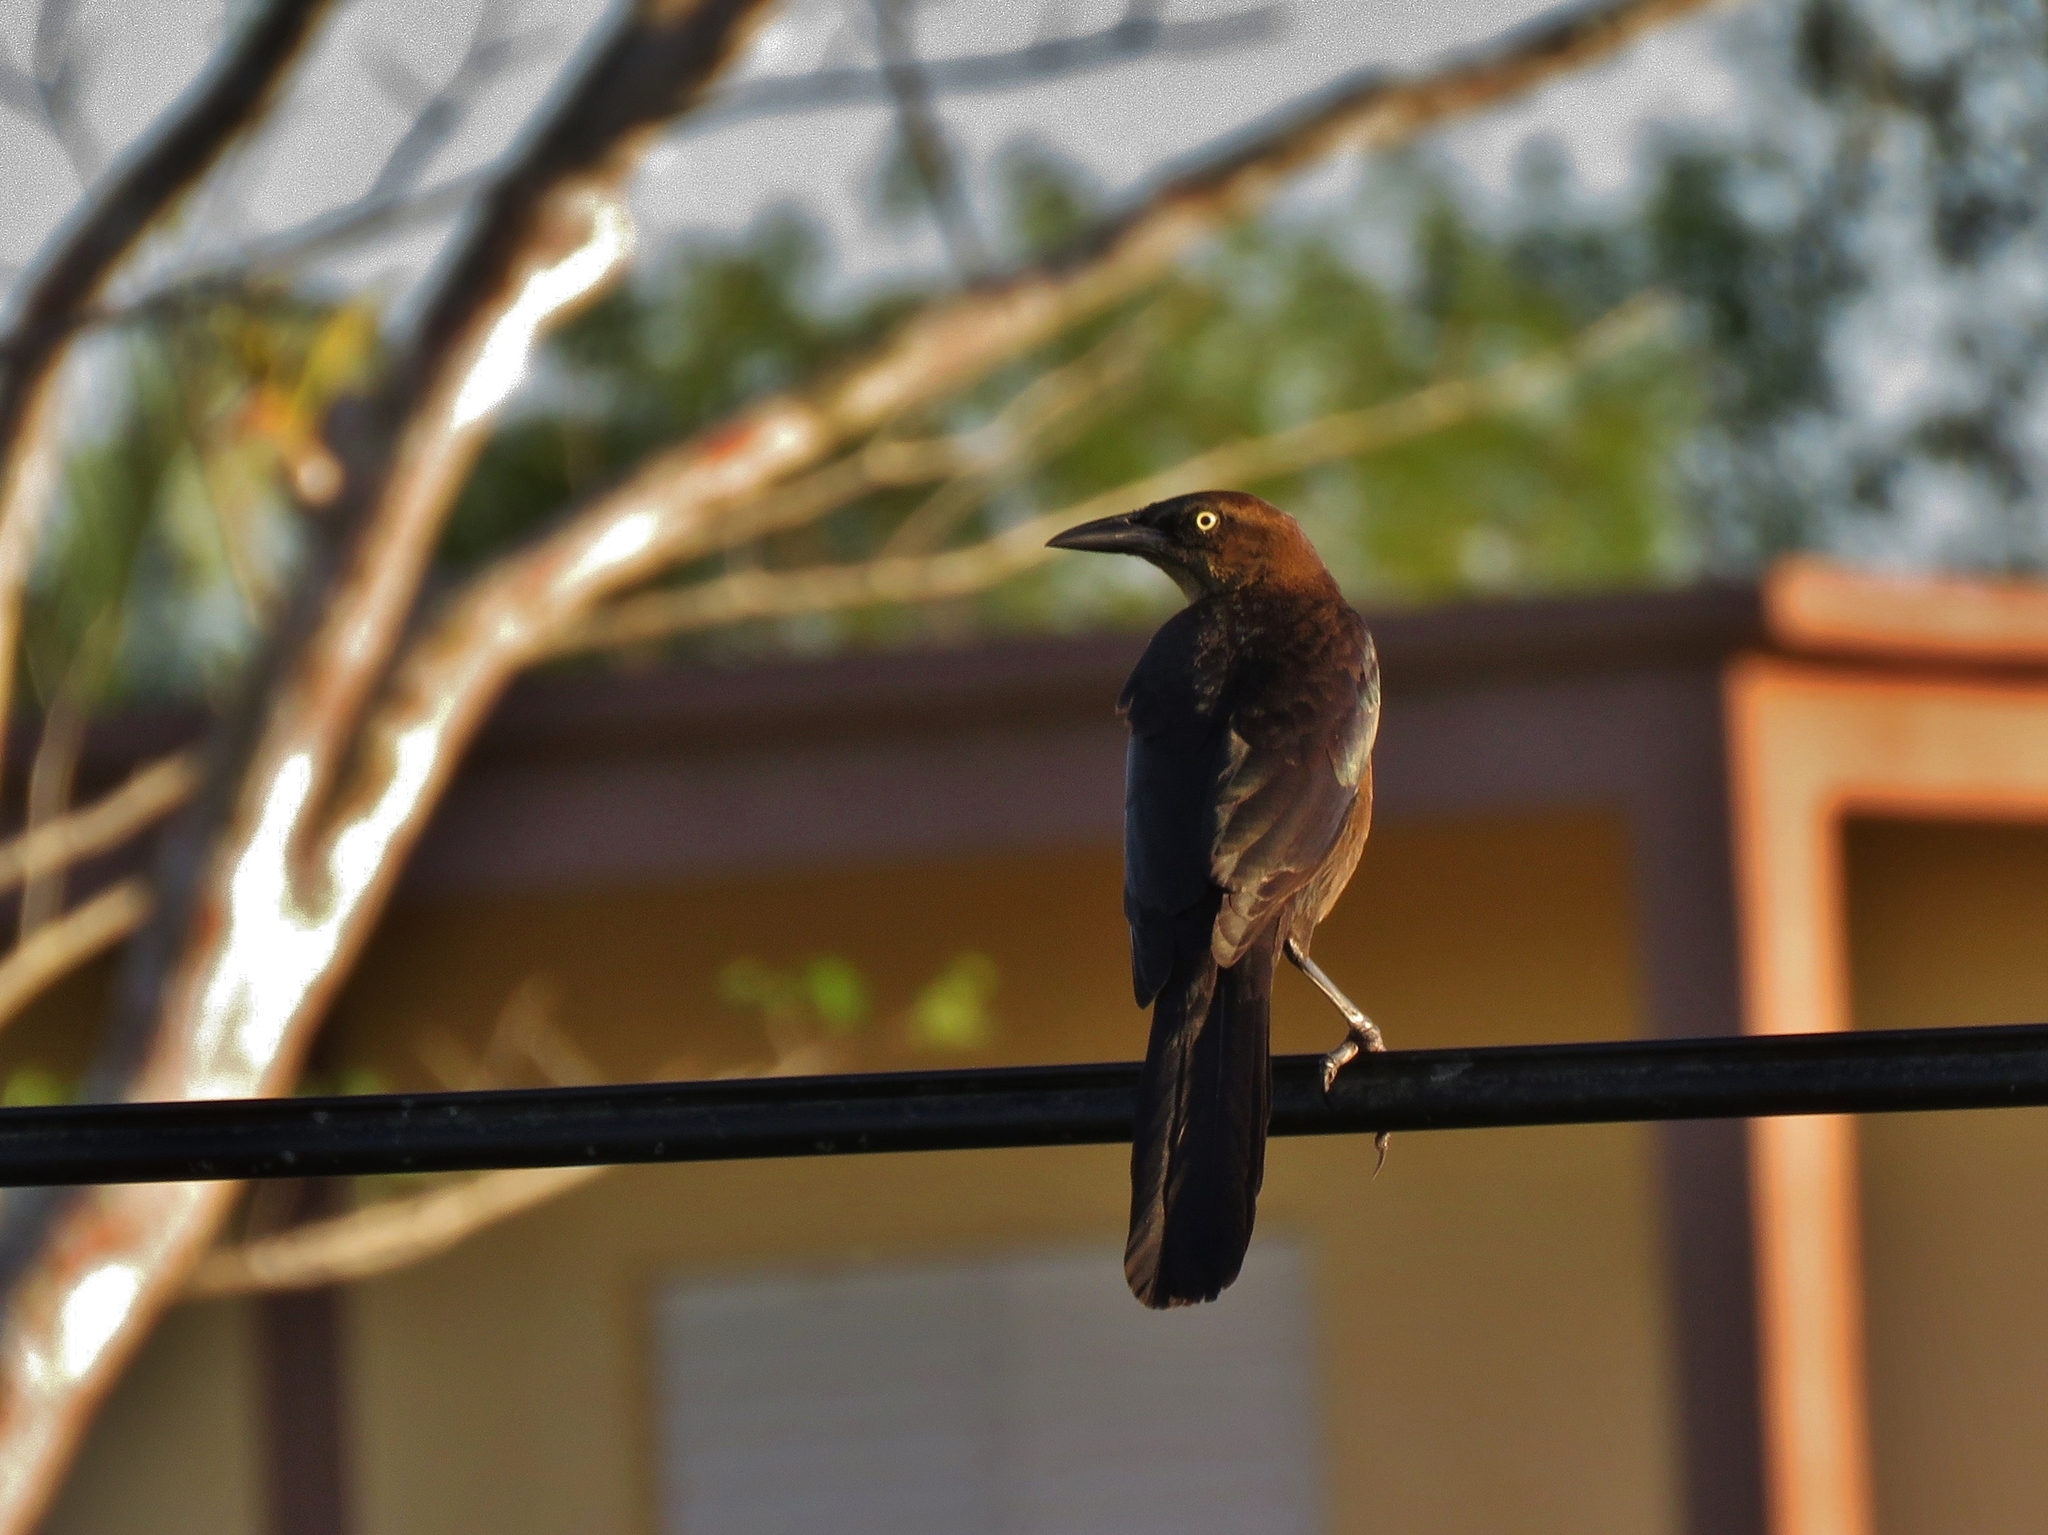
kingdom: Animalia
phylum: Chordata
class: Aves
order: Passeriformes
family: Icteridae
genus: Quiscalus
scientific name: Quiscalus mexicanus
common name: Great-tailed grackle
